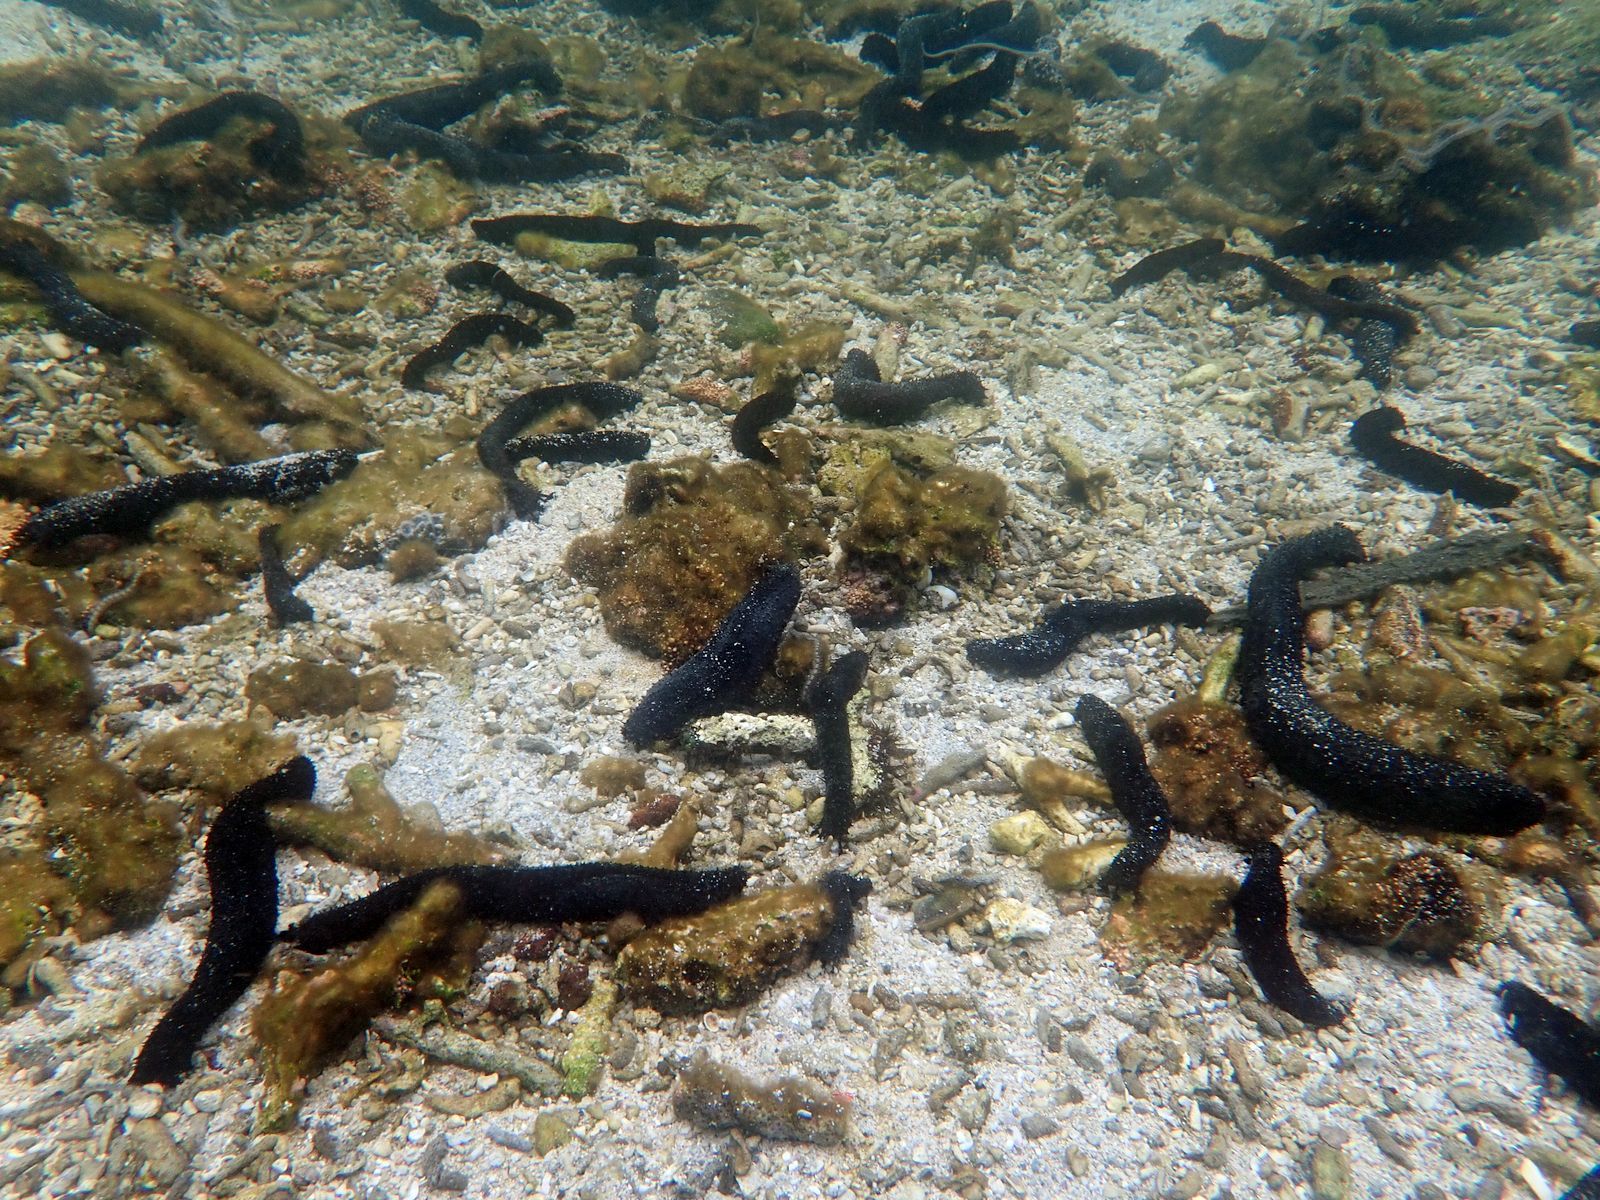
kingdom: Animalia
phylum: Echinodermata
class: Holothuroidea
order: Holothuriida
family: Holothuriidae
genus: Holothuria
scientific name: Holothuria leucospilota
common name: White thread fish
